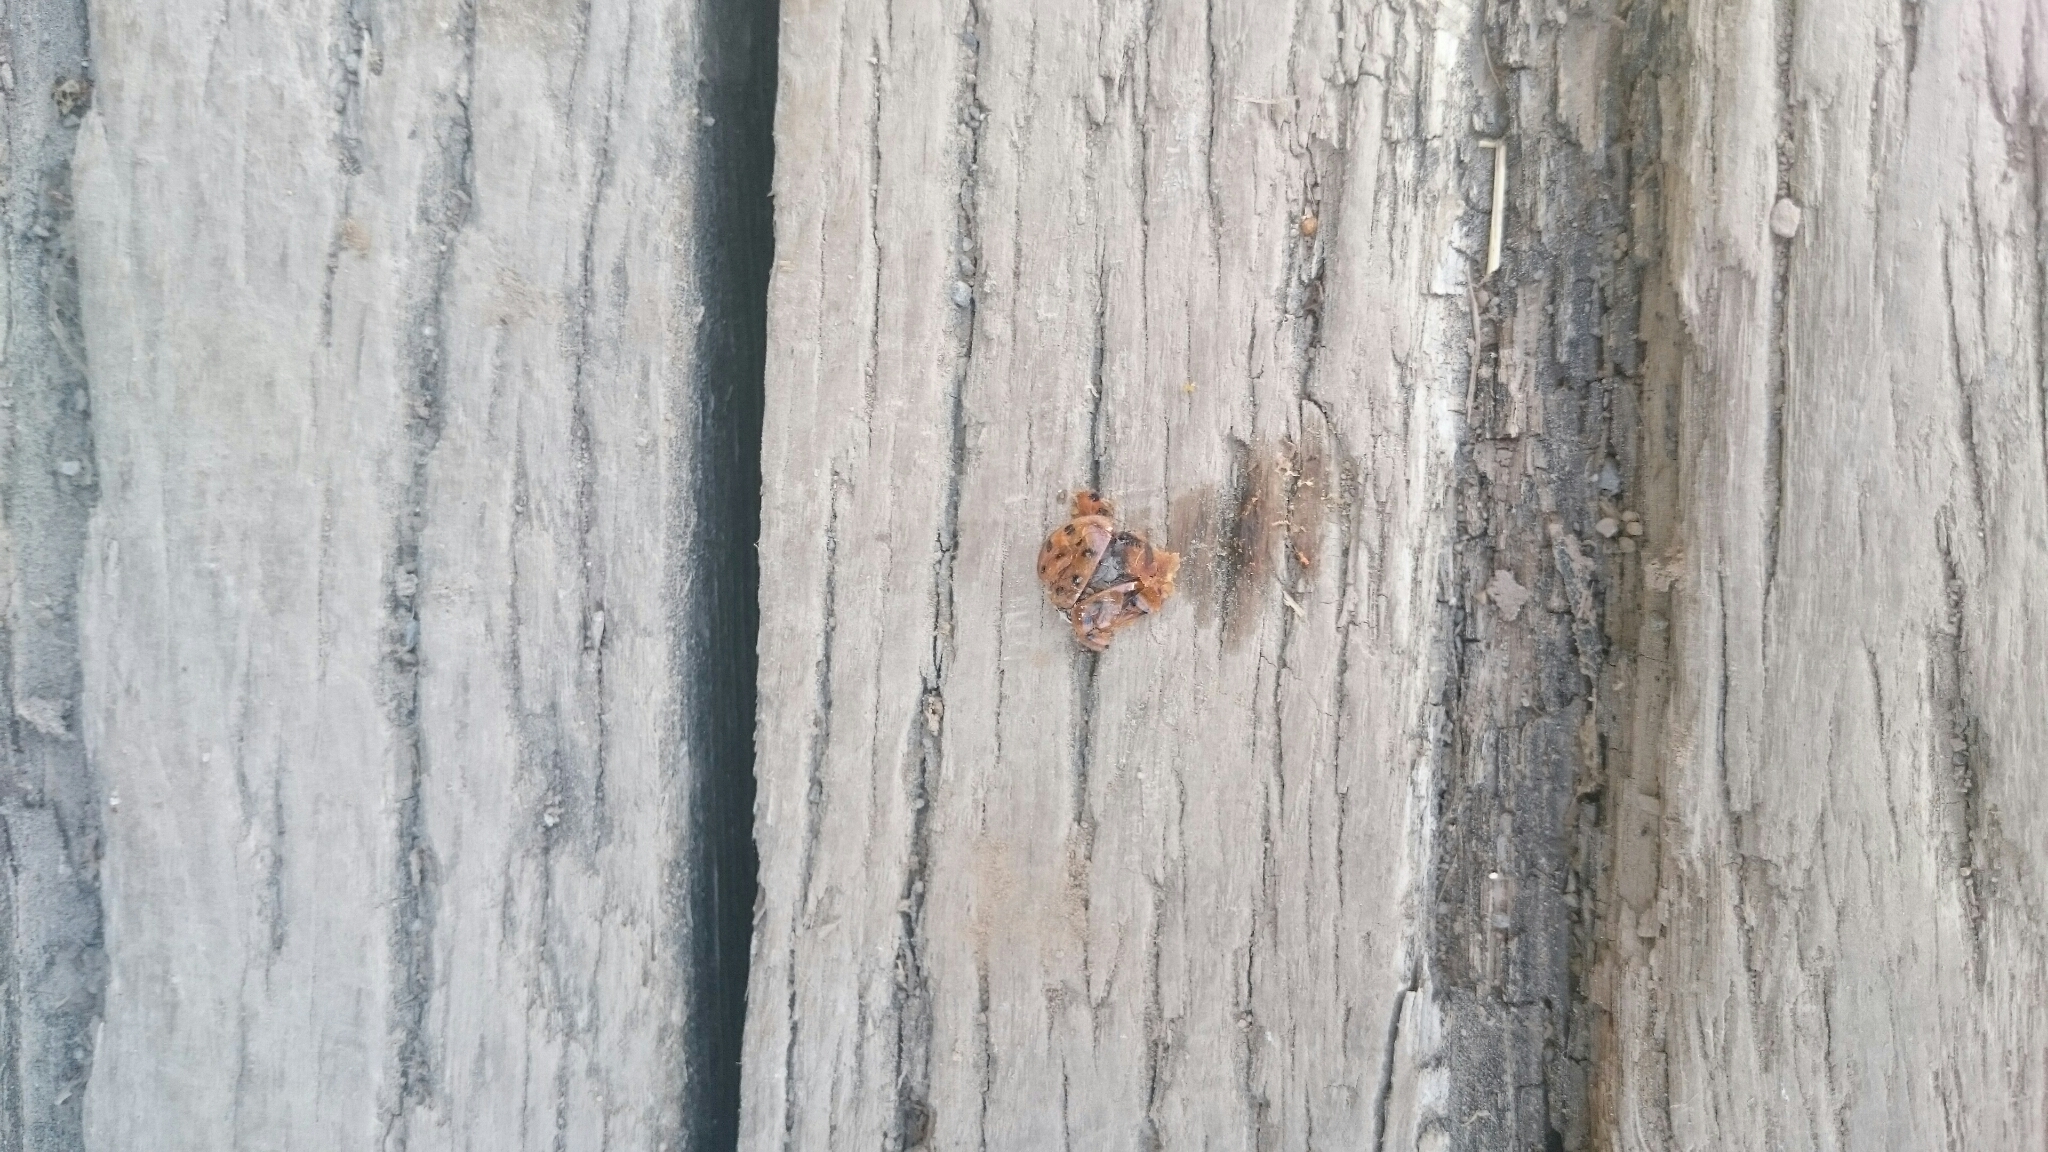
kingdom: Animalia
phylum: Arthropoda
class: Insecta
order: Coleoptera
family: Coccinellidae
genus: Harmonia
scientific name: Harmonia axyridis
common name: Harlequin ladybird
